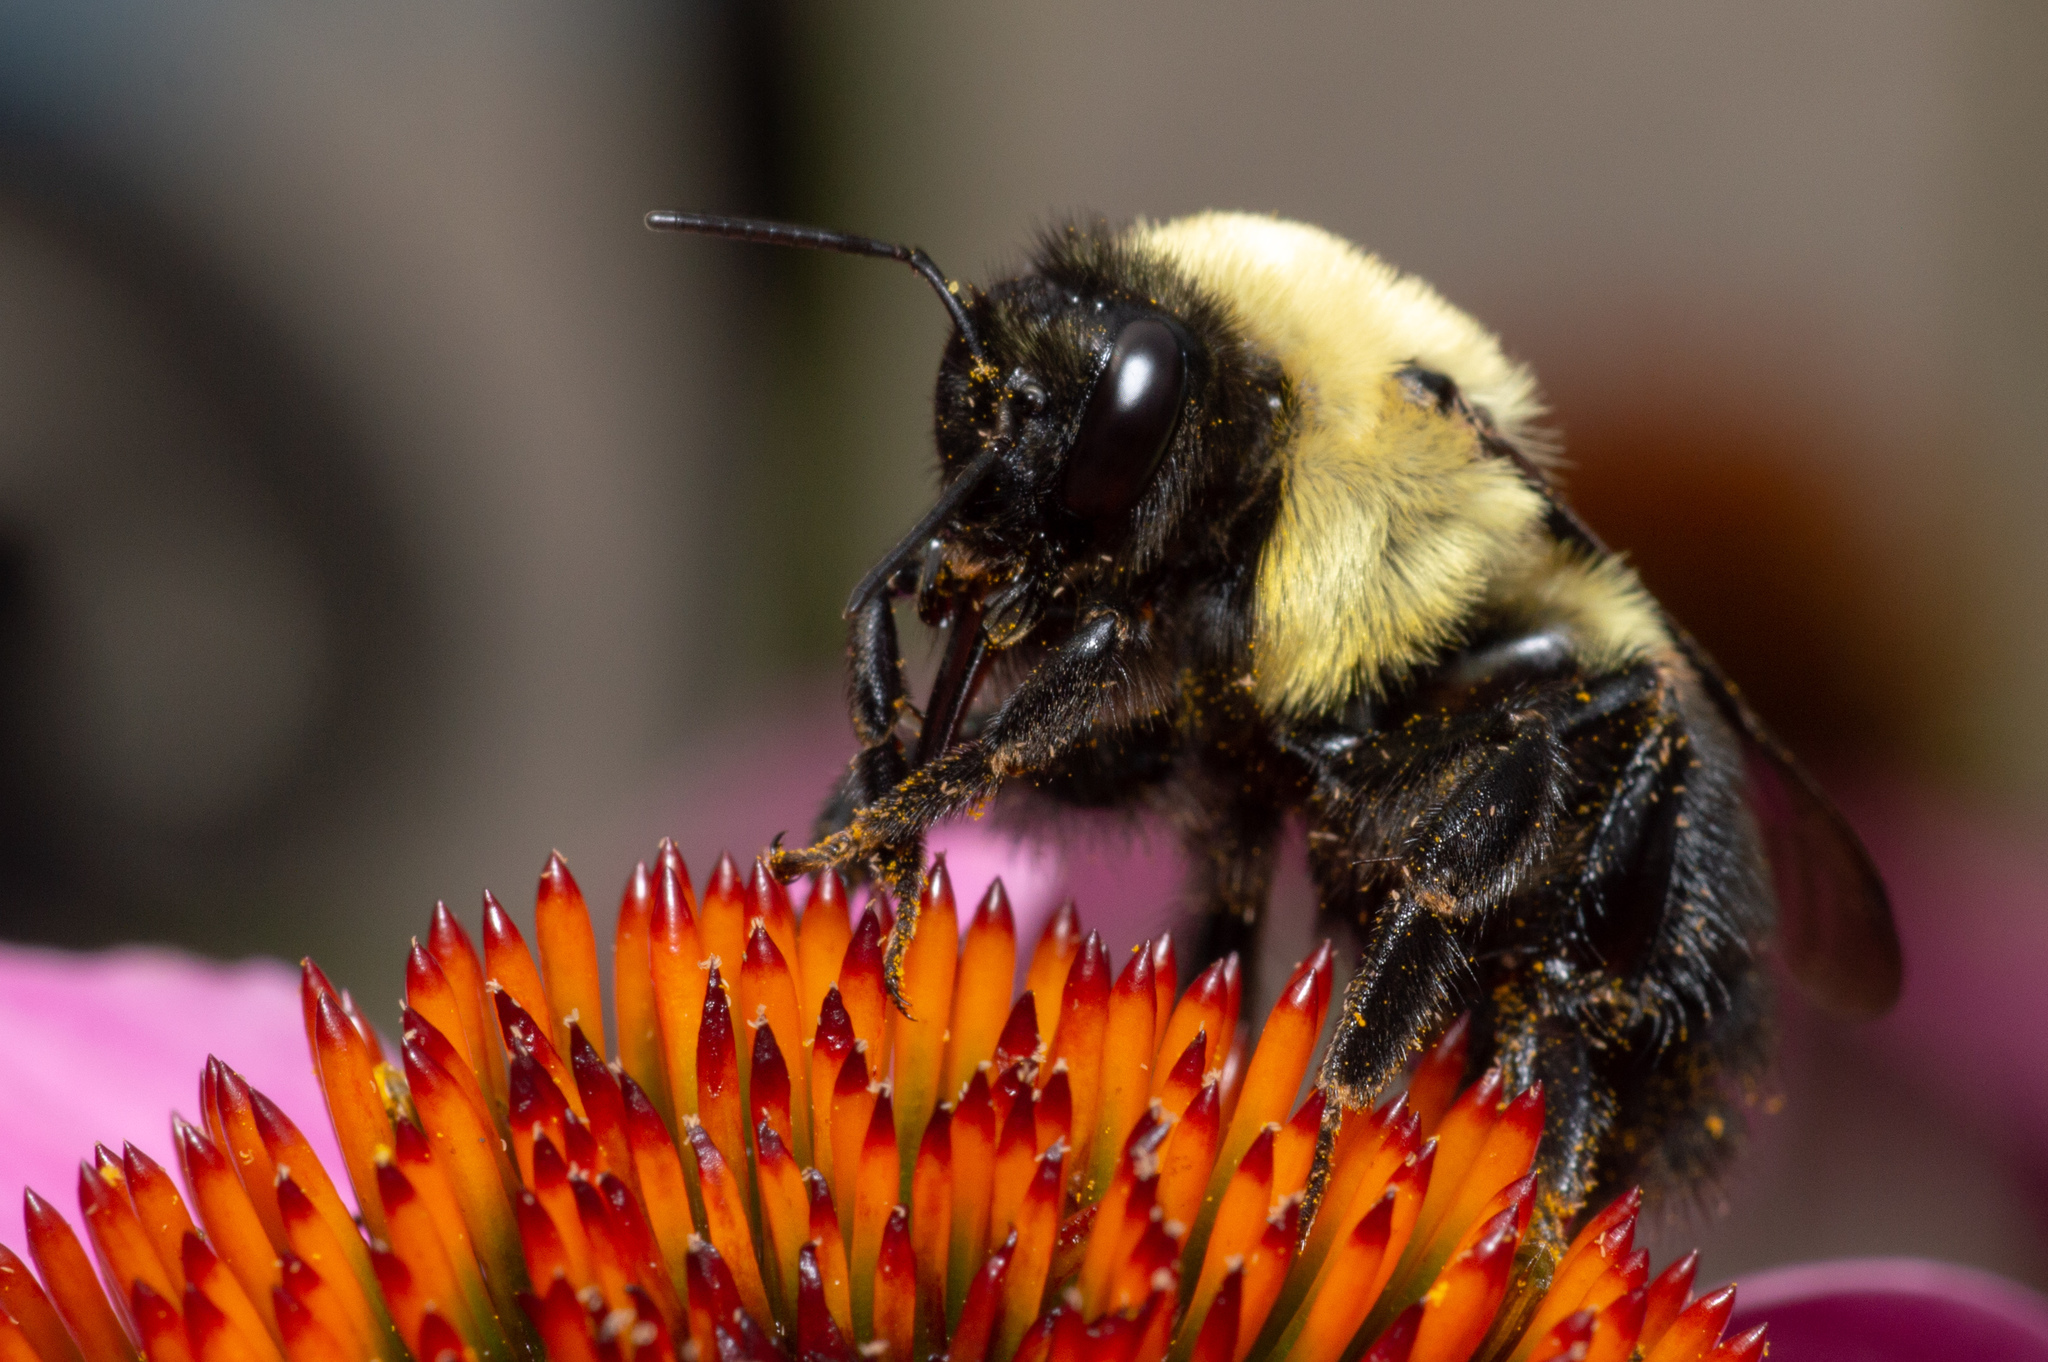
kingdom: Animalia
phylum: Arthropoda
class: Insecta
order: Hymenoptera
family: Apidae
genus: Bombus
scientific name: Bombus griseocollis
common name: Brown-belted bumble bee
